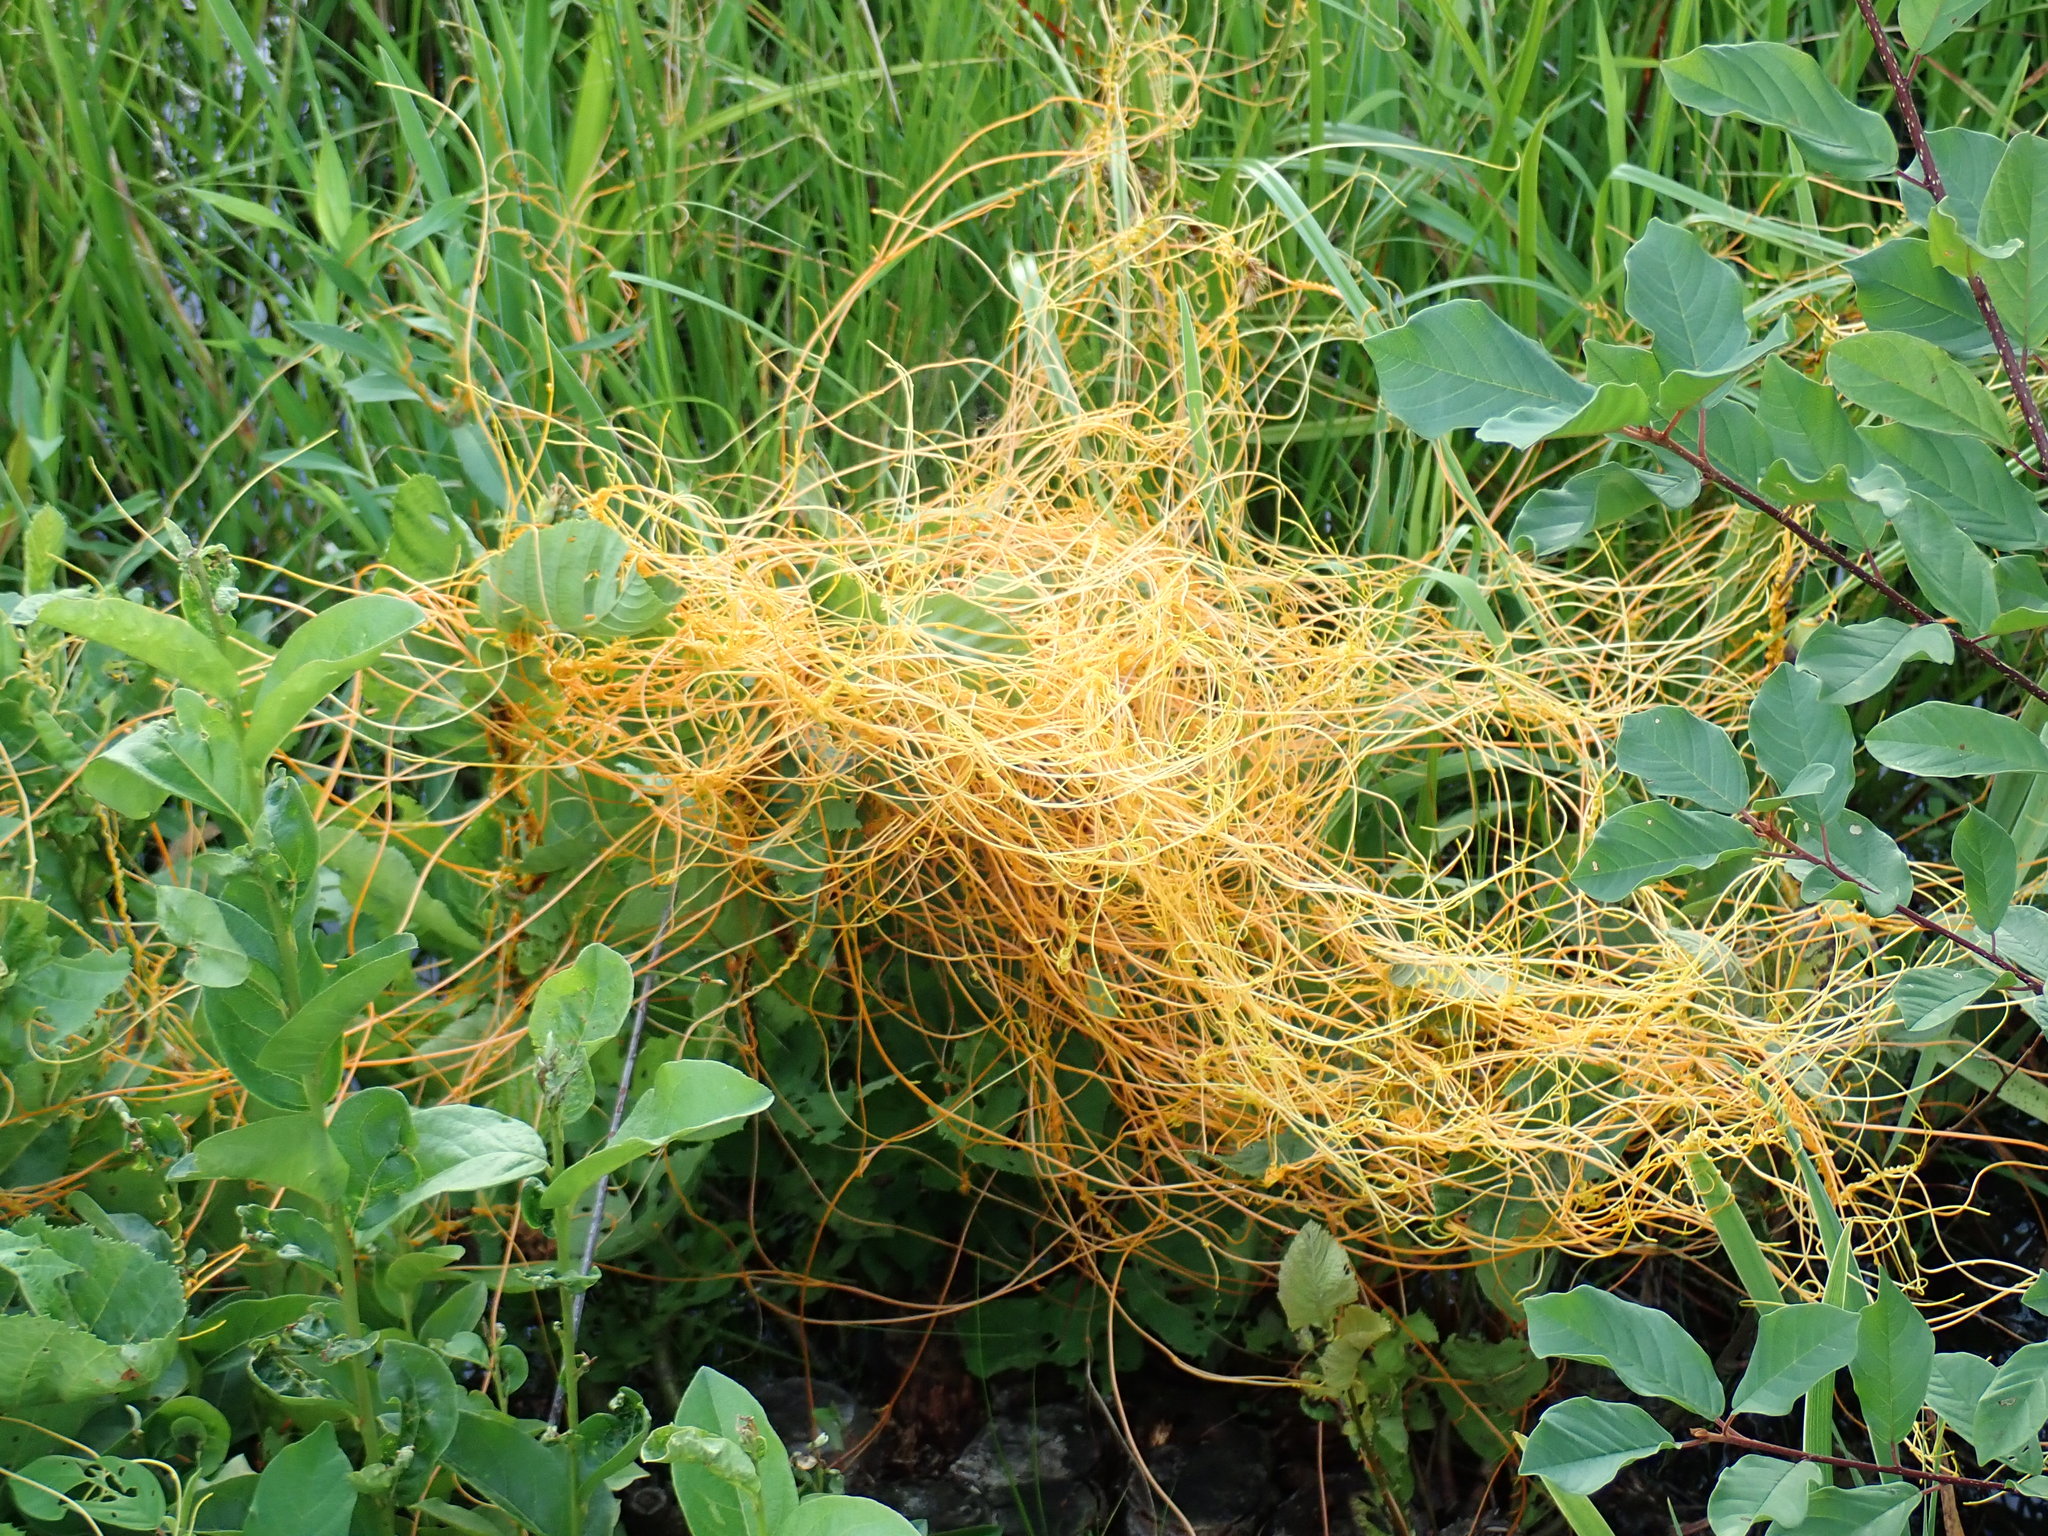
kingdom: Plantae
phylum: Tracheophyta
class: Magnoliopsida
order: Solanales
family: Convolvulaceae
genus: Cuscuta
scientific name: Cuscuta
